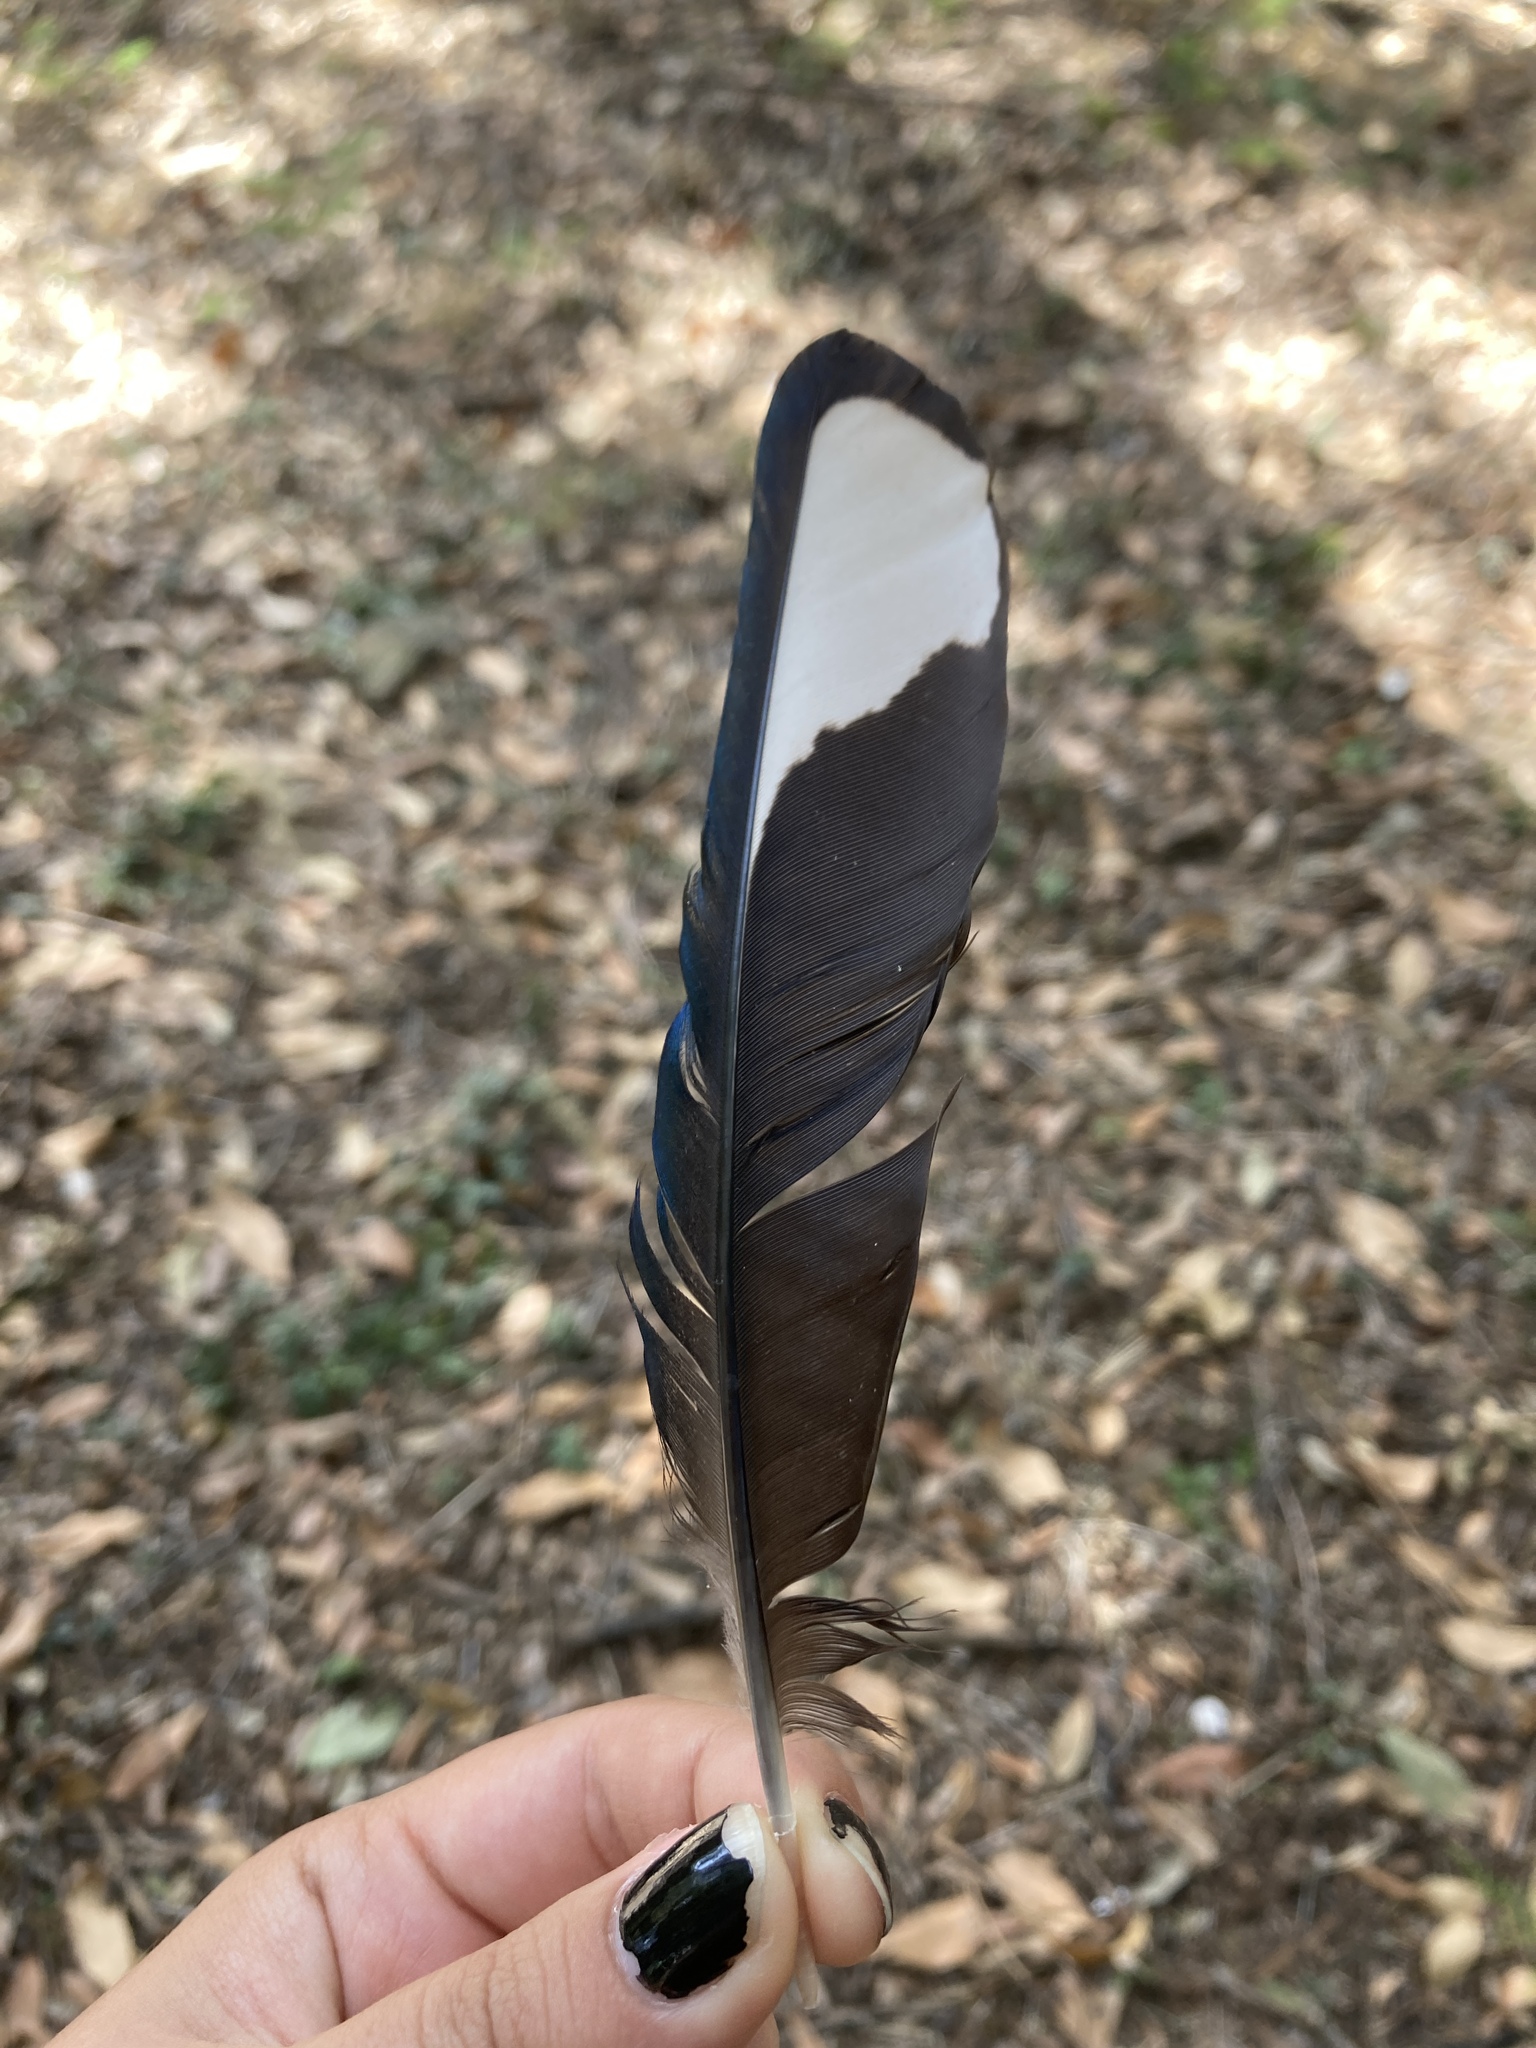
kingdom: Animalia
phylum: Chordata
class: Aves
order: Passeriformes
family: Corvidae
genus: Pica
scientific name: Pica pica
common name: Eurasian magpie
